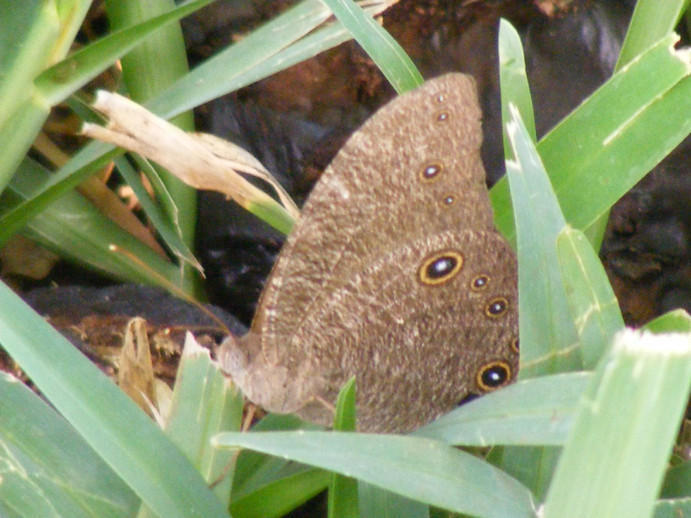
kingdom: Animalia
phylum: Arthropoda
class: Insecta
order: Lepidoptera
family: Nymphalidae
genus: Melanitis
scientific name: Melanitis leda
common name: Twilight brown
